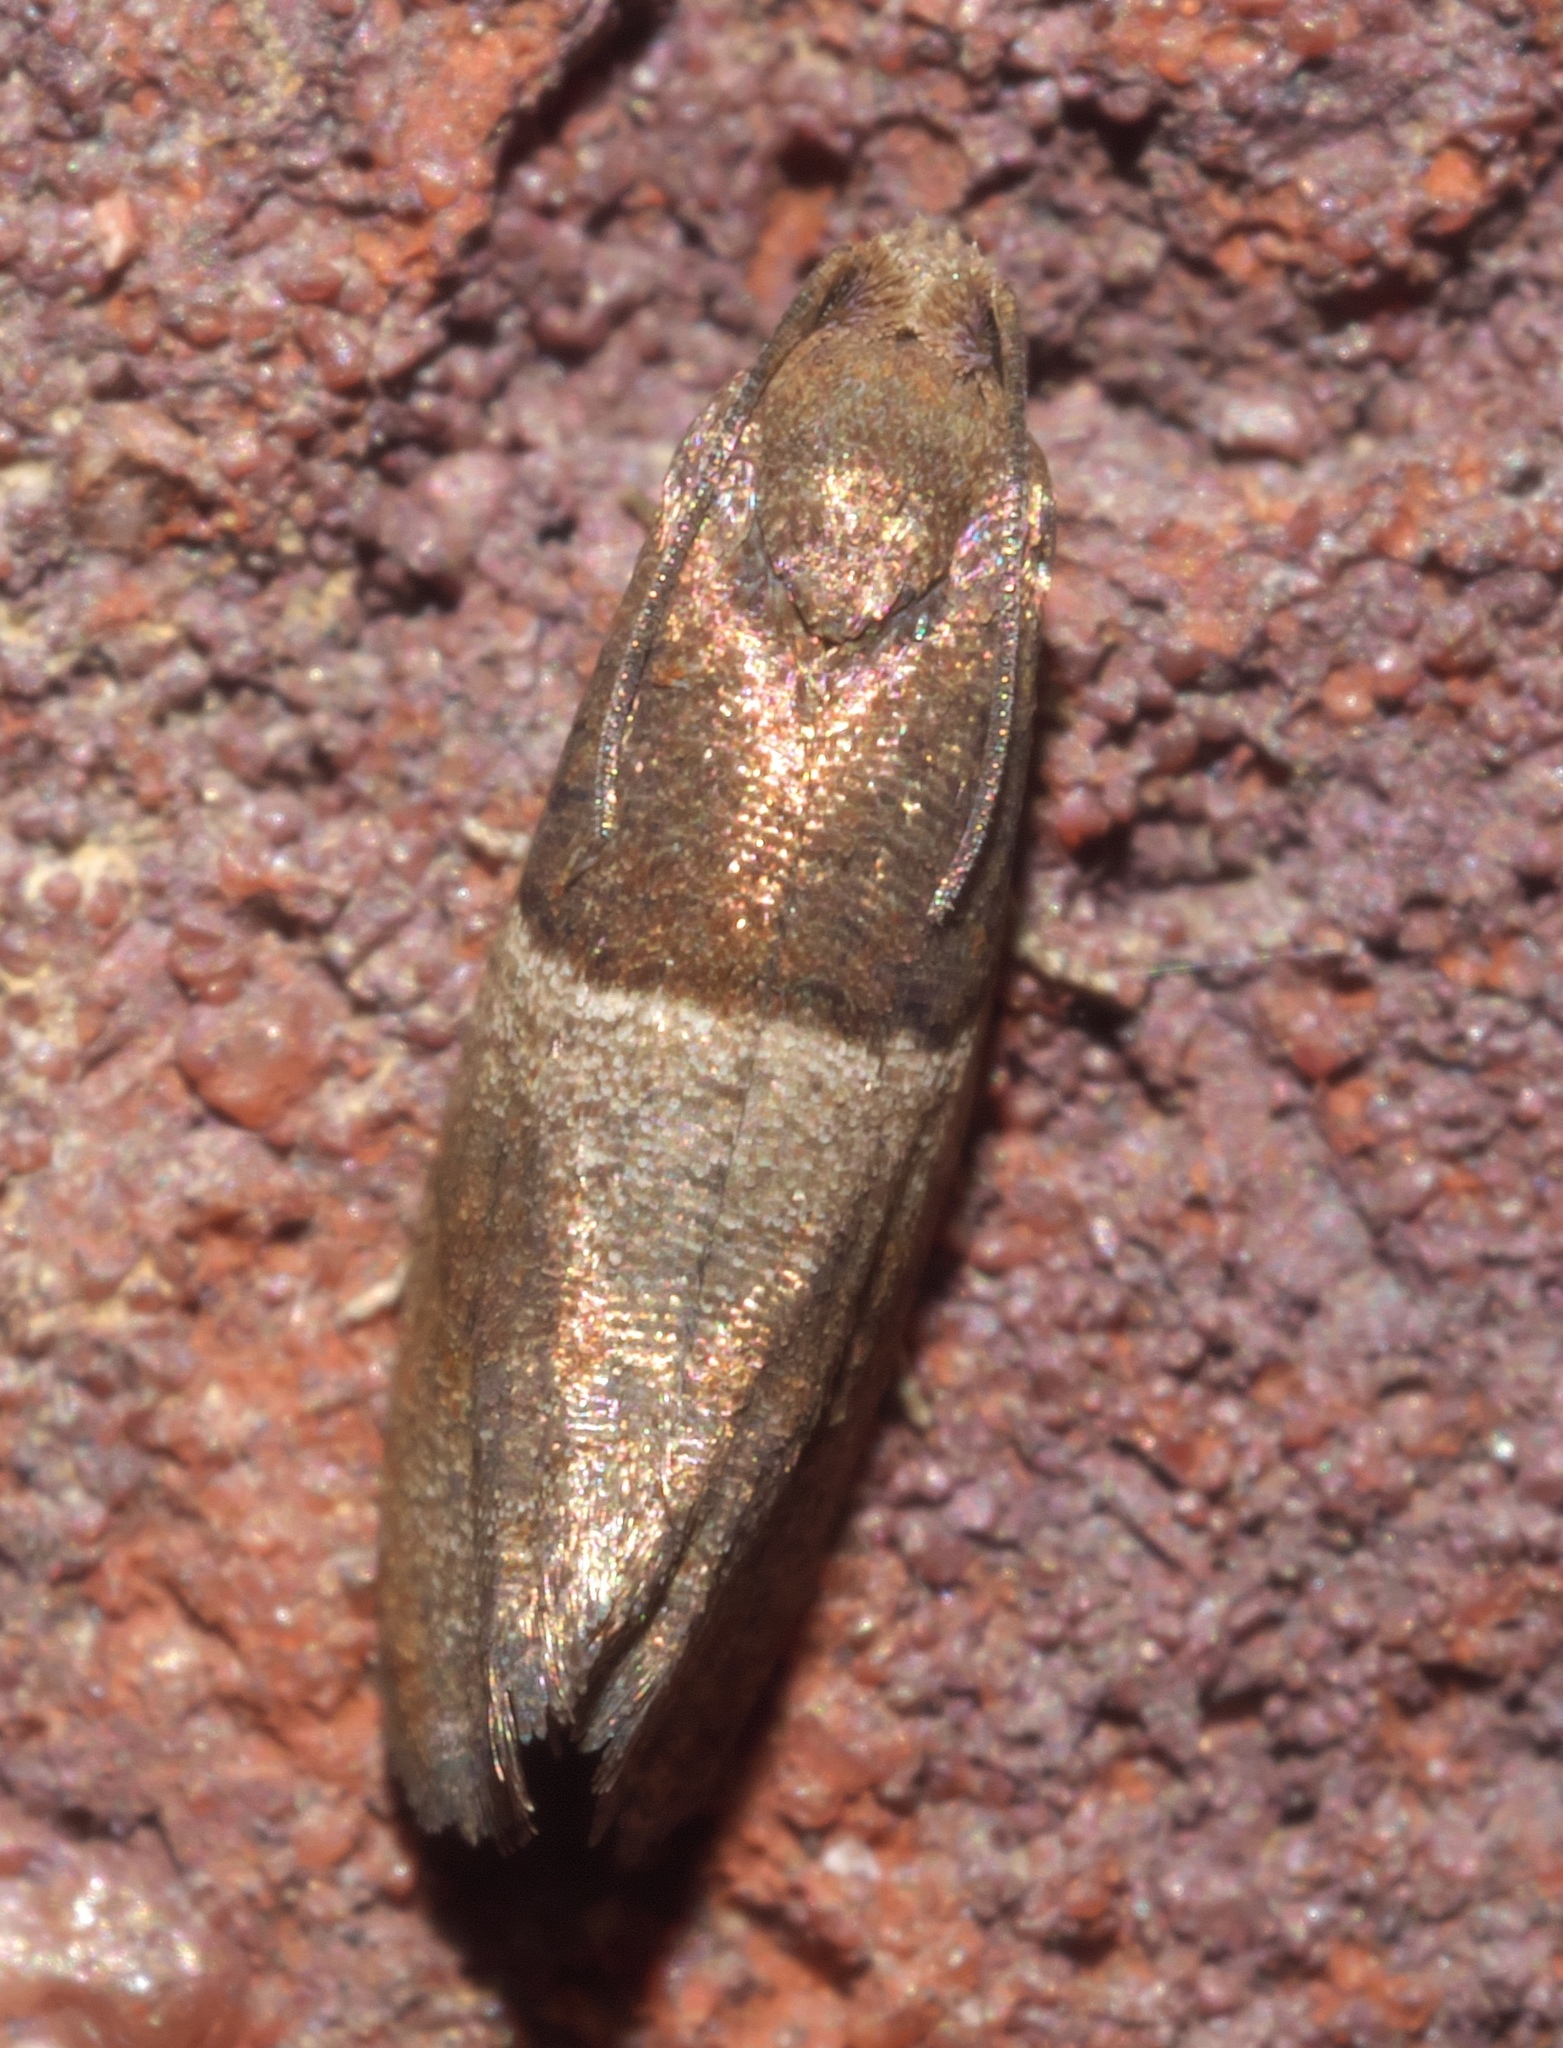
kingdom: Animalia
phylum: Arthropoda
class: Insecta
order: Lepidoptera
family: Tortricidae
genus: Larisa
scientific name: Larisa subsolana
